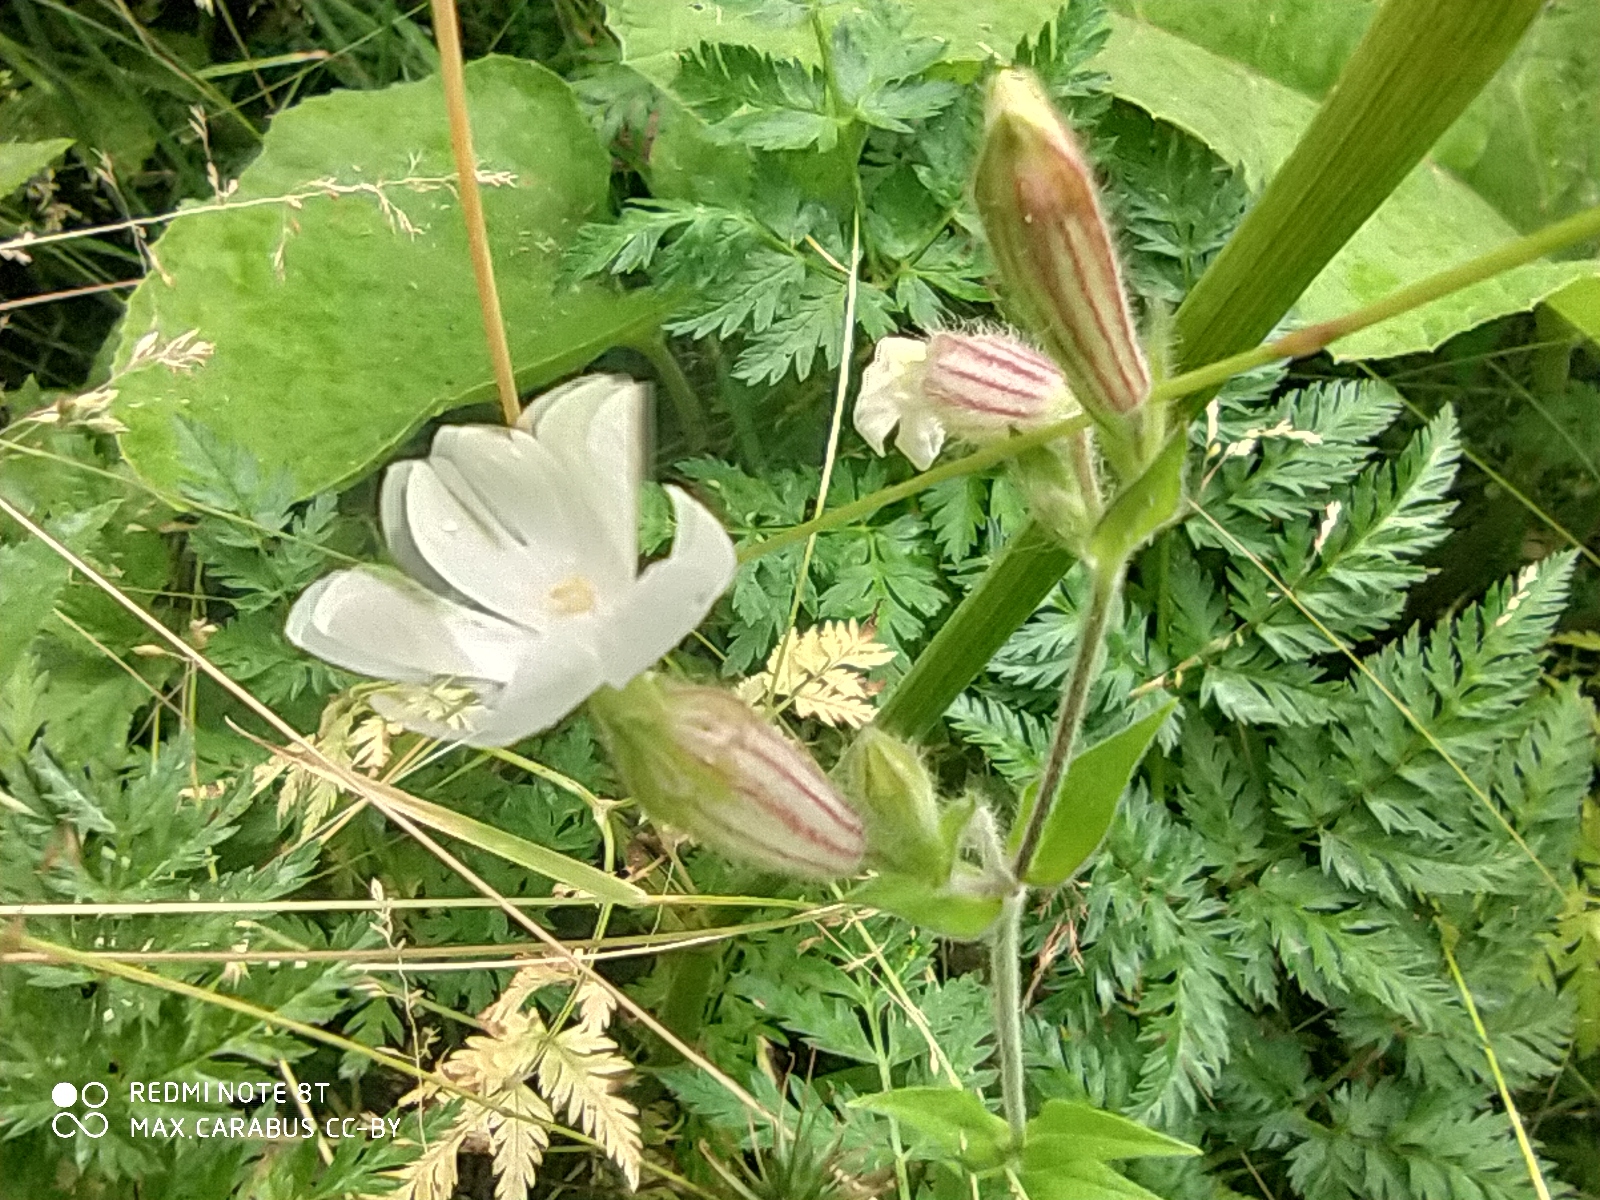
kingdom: Plantae
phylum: Tracheophyta
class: Magnoliopsida
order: Caryophyllales
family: Caryophyllaceae
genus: Silene
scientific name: Silene latifolia
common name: White campion
